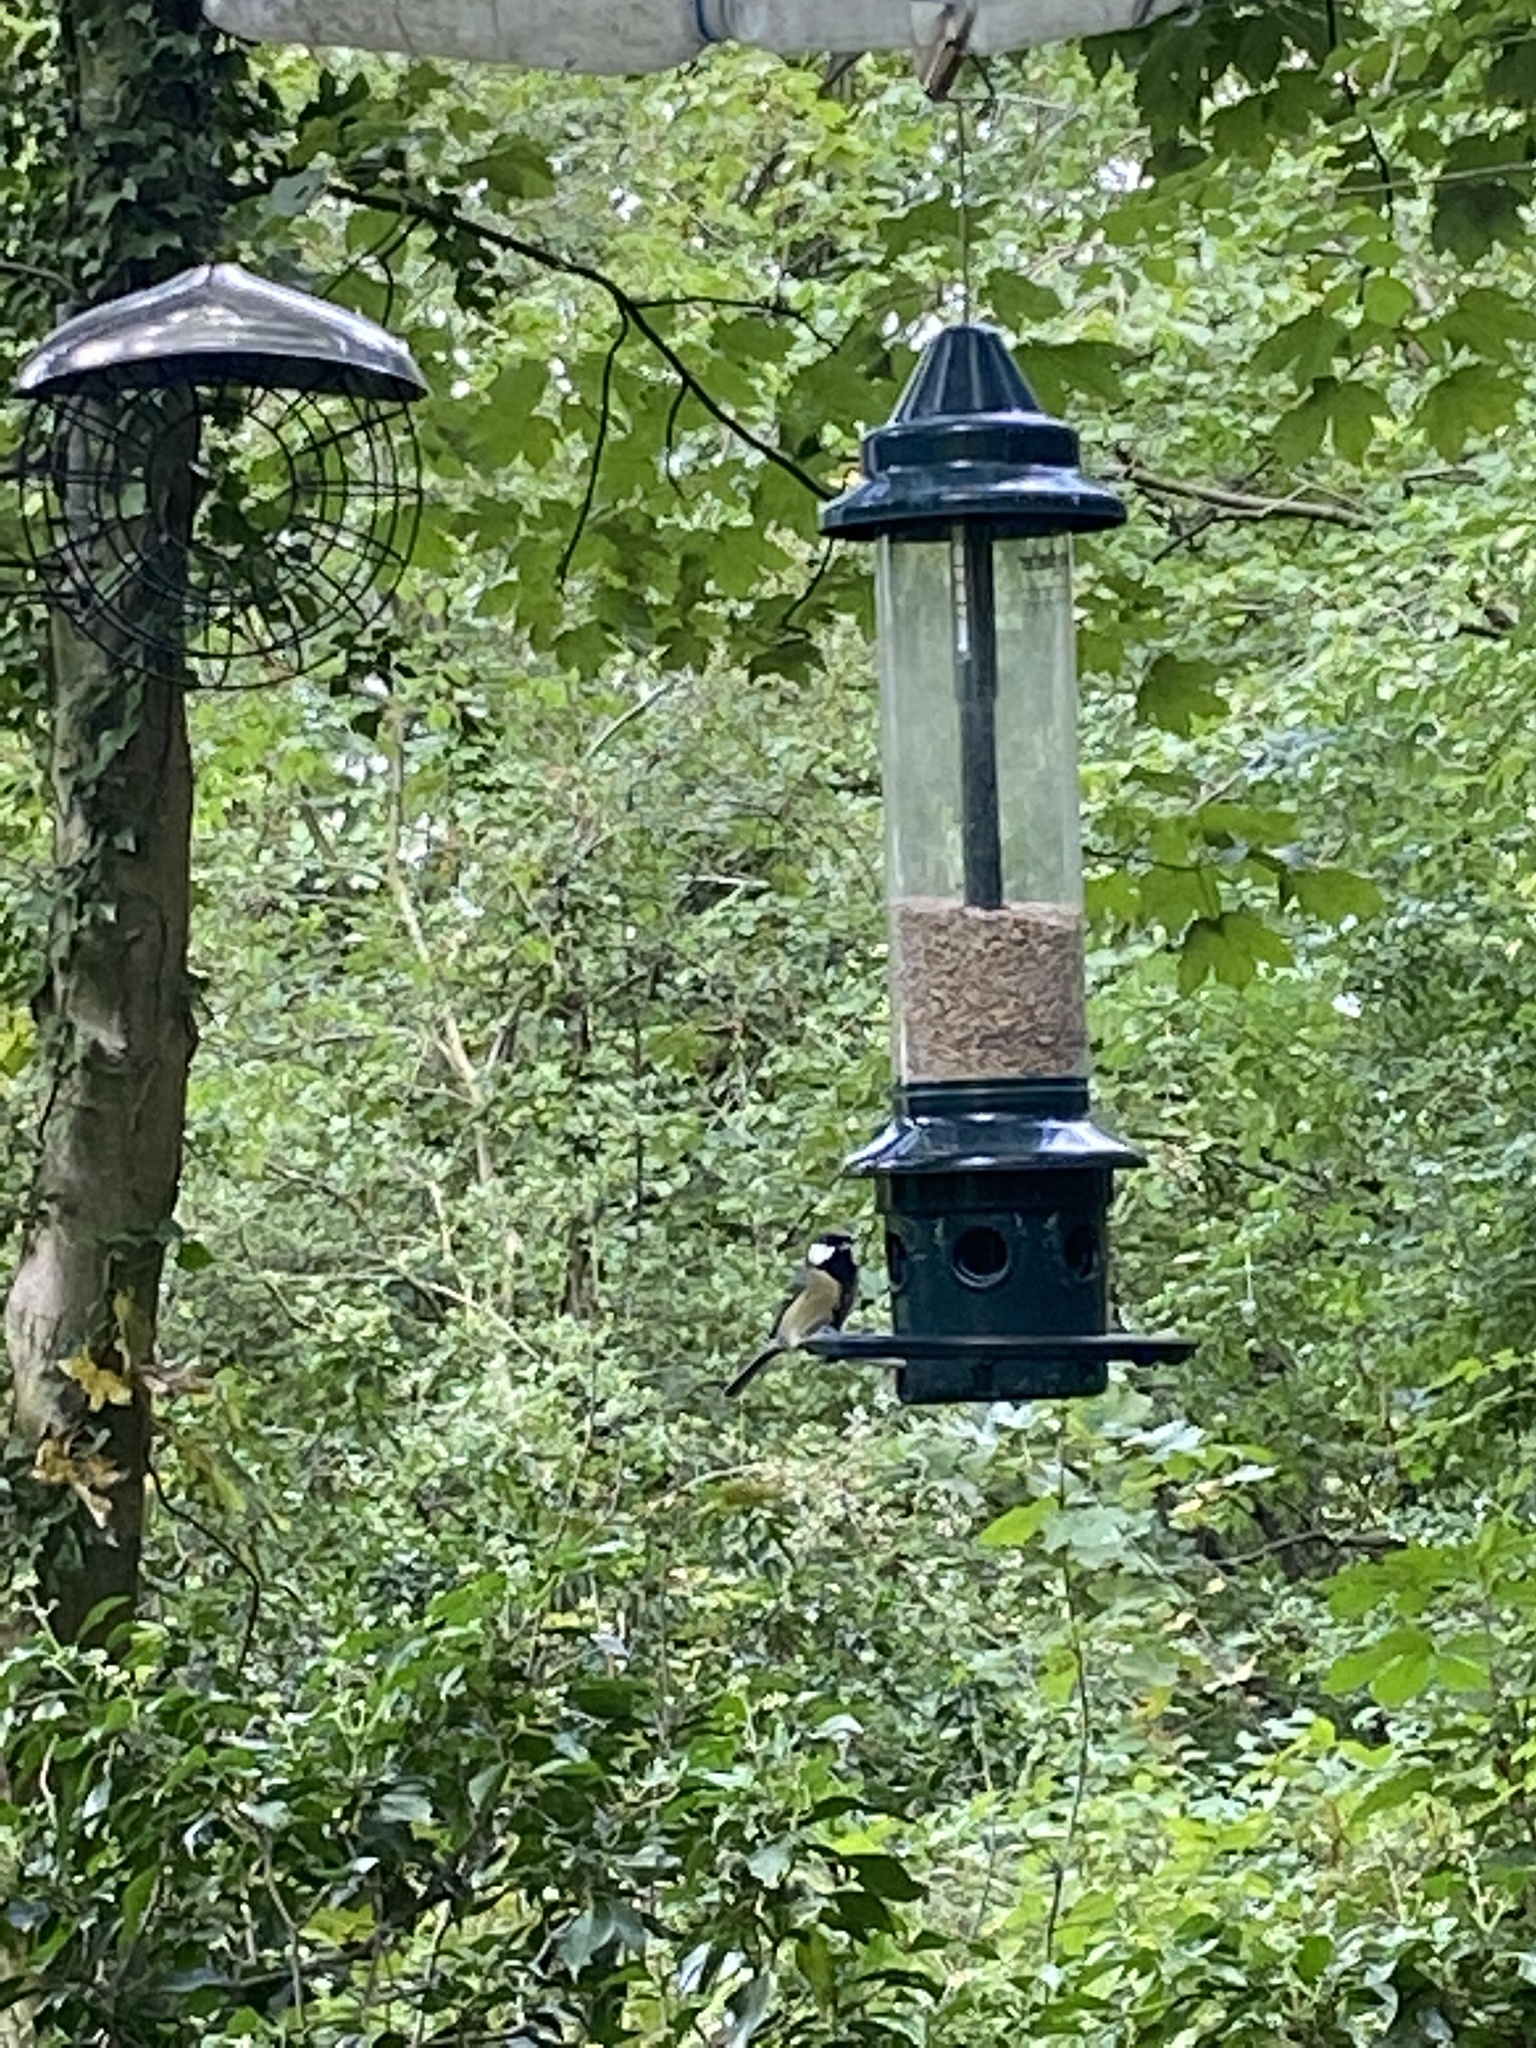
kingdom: Animalia
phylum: Chordata
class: Aves
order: Passeriformes
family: Paridae
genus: Parus
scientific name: Parus major
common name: Great tit
